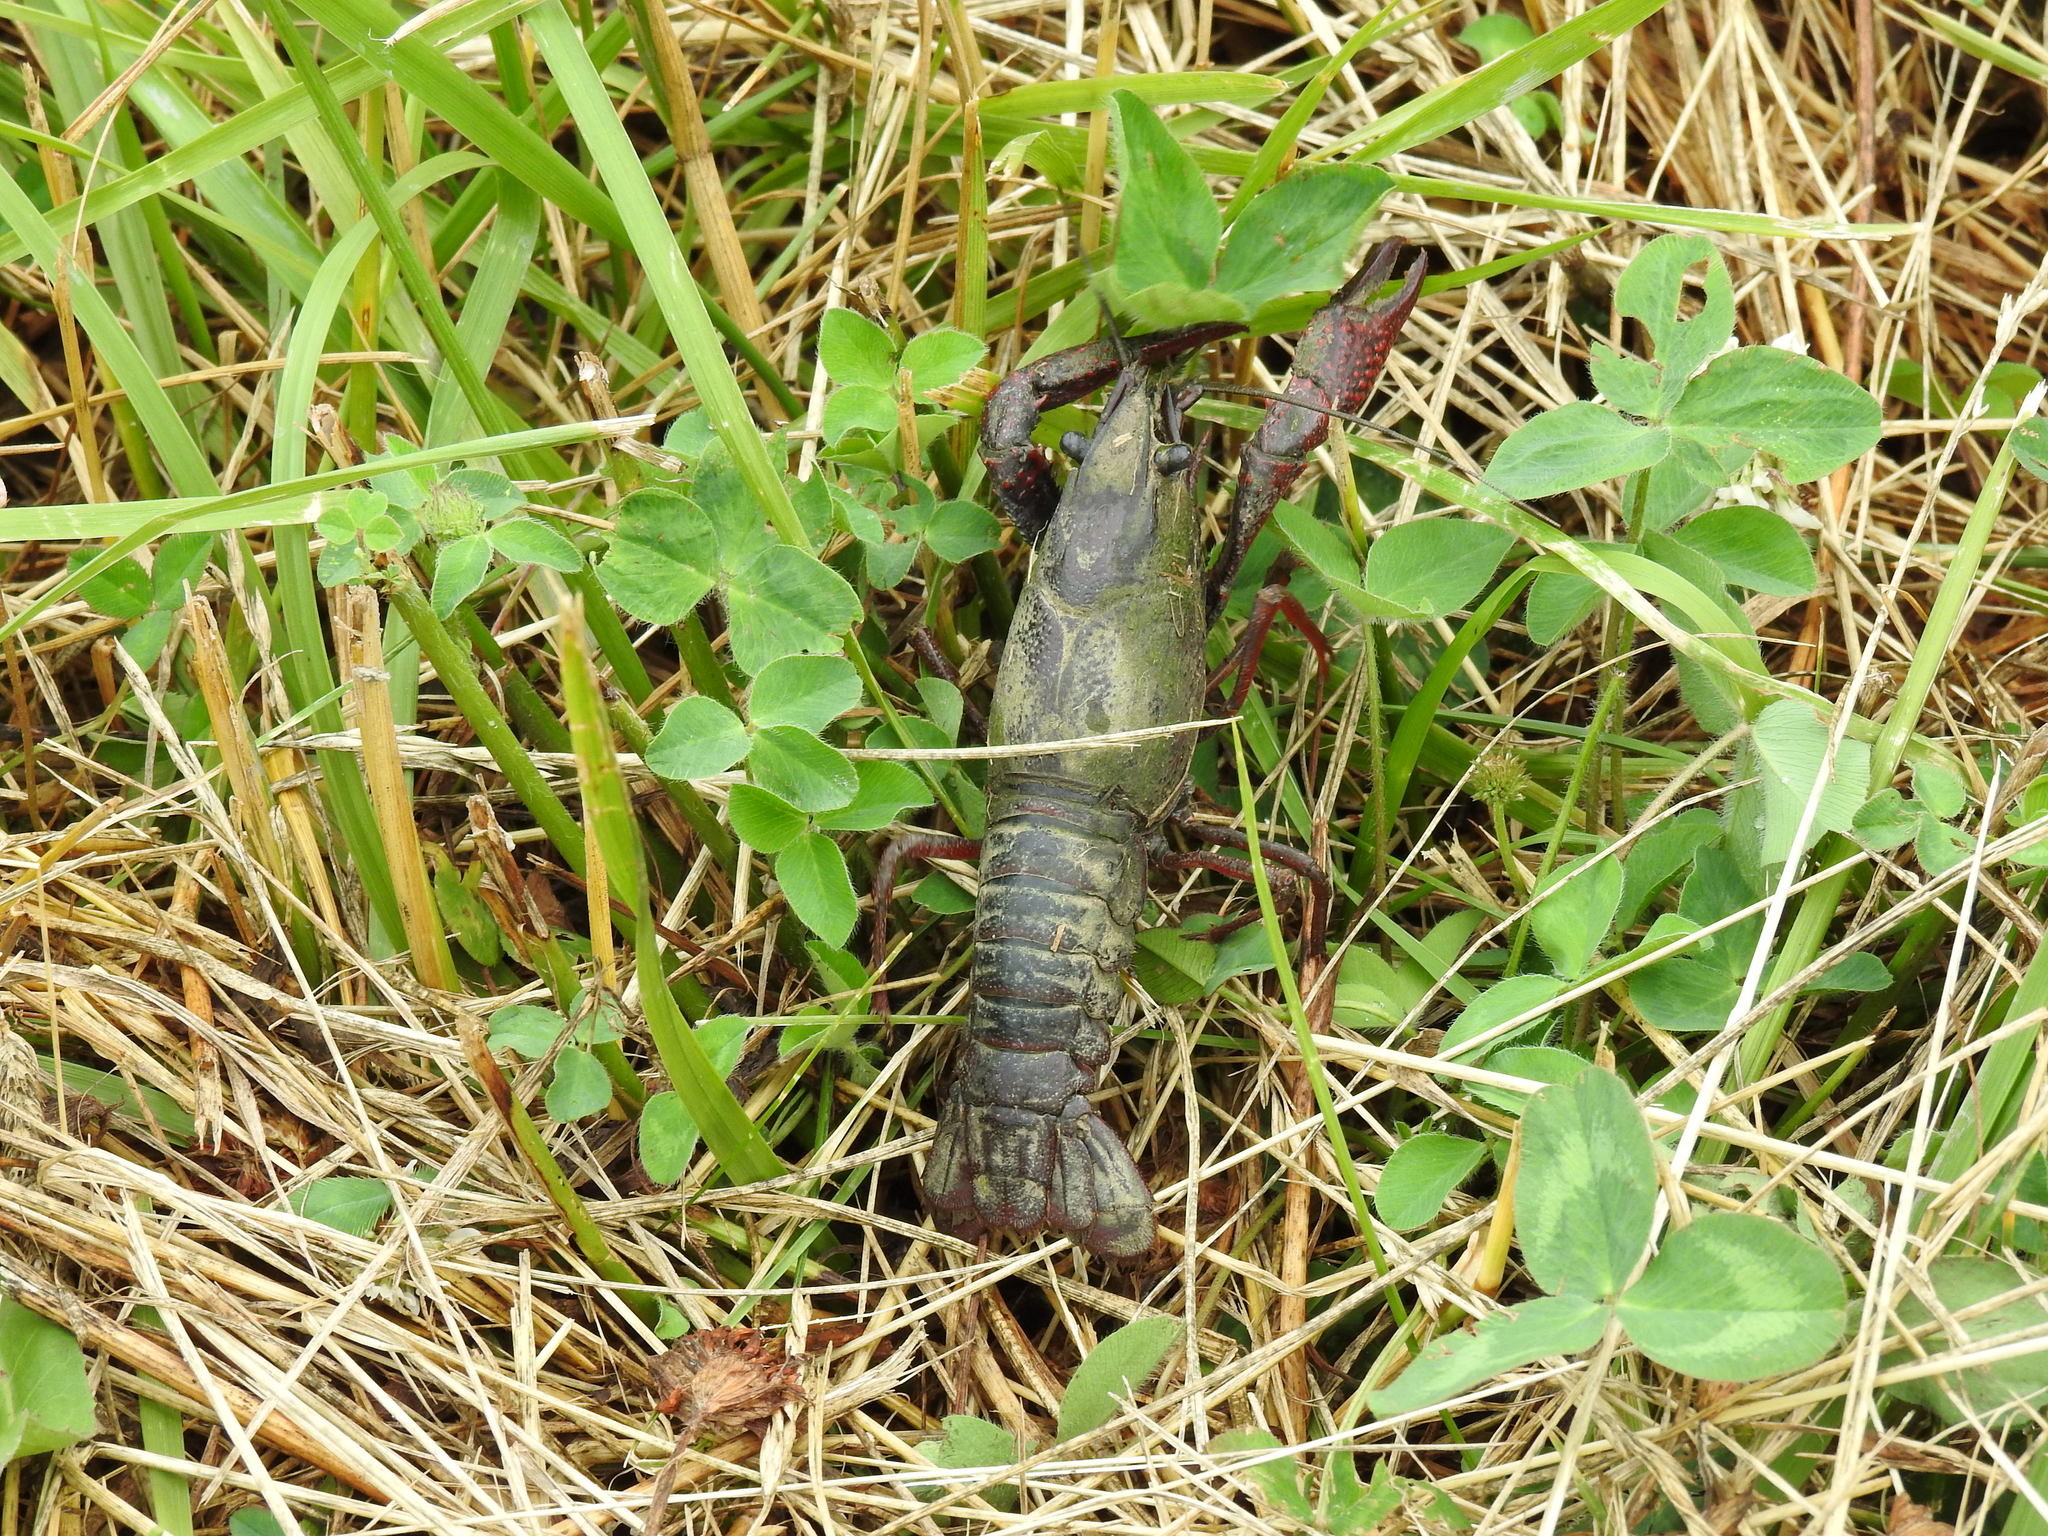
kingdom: Animalia
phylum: Arthropoda
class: Malacostraca
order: Decapoda
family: Cambaridae
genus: Procambarus
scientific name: Procambarus clarkii
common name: Red swamp crayfish
